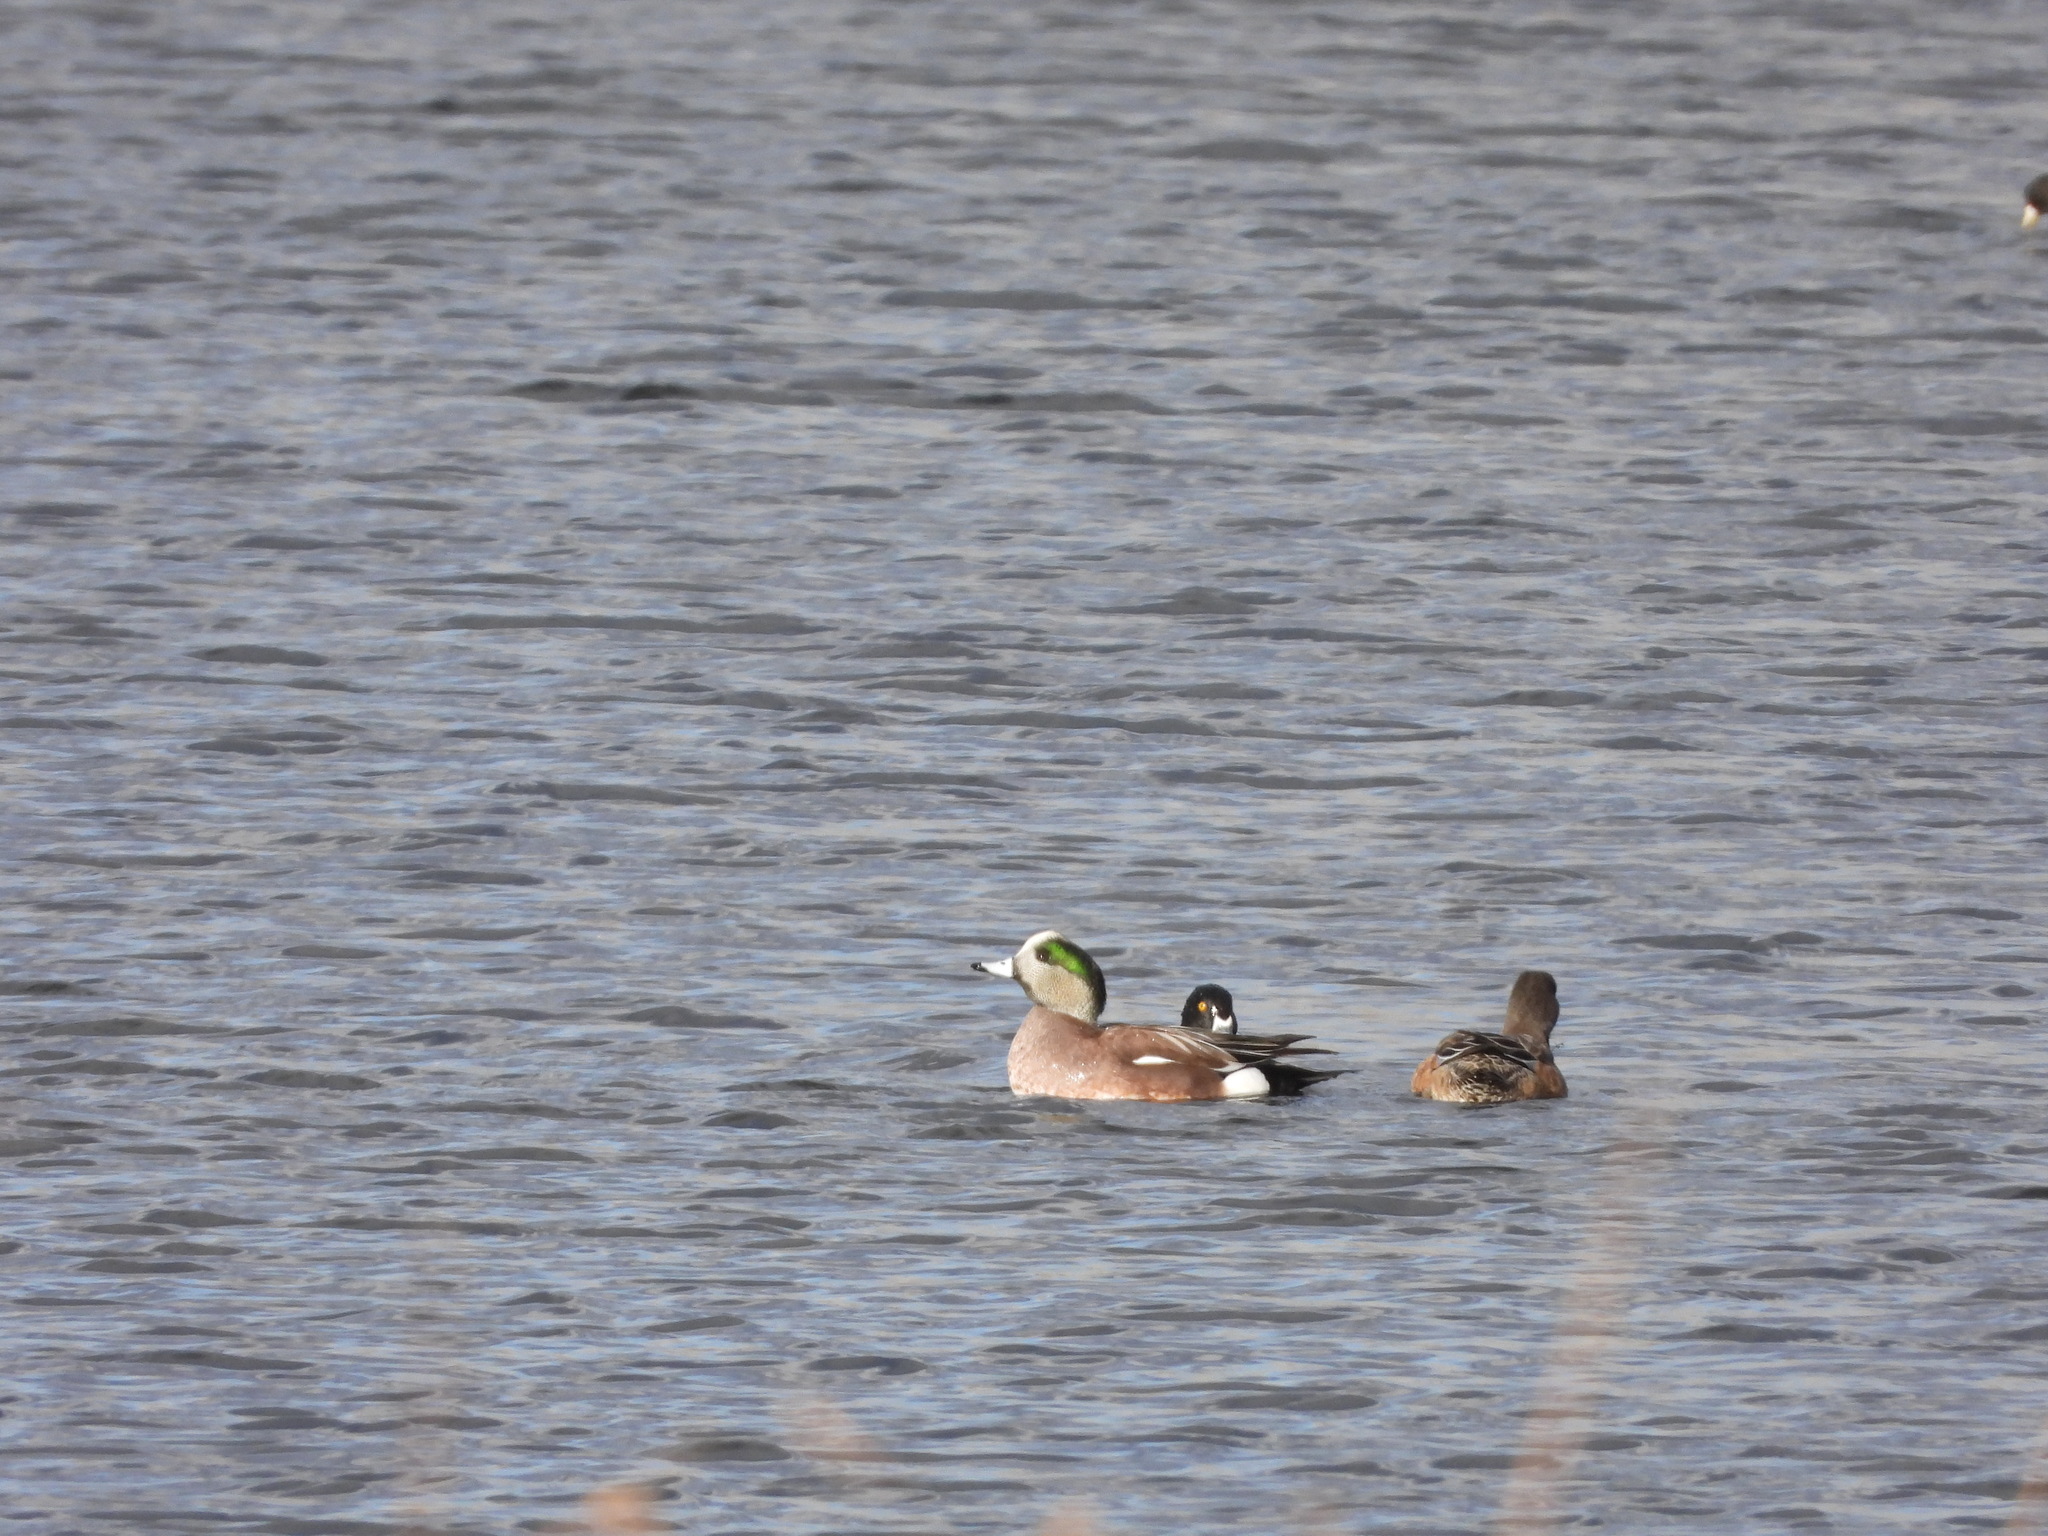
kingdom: Animalia
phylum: Chordata
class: Aves
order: Anseriformes
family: Anatidae
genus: Mareca
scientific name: Mareca americana
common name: American wigeon
